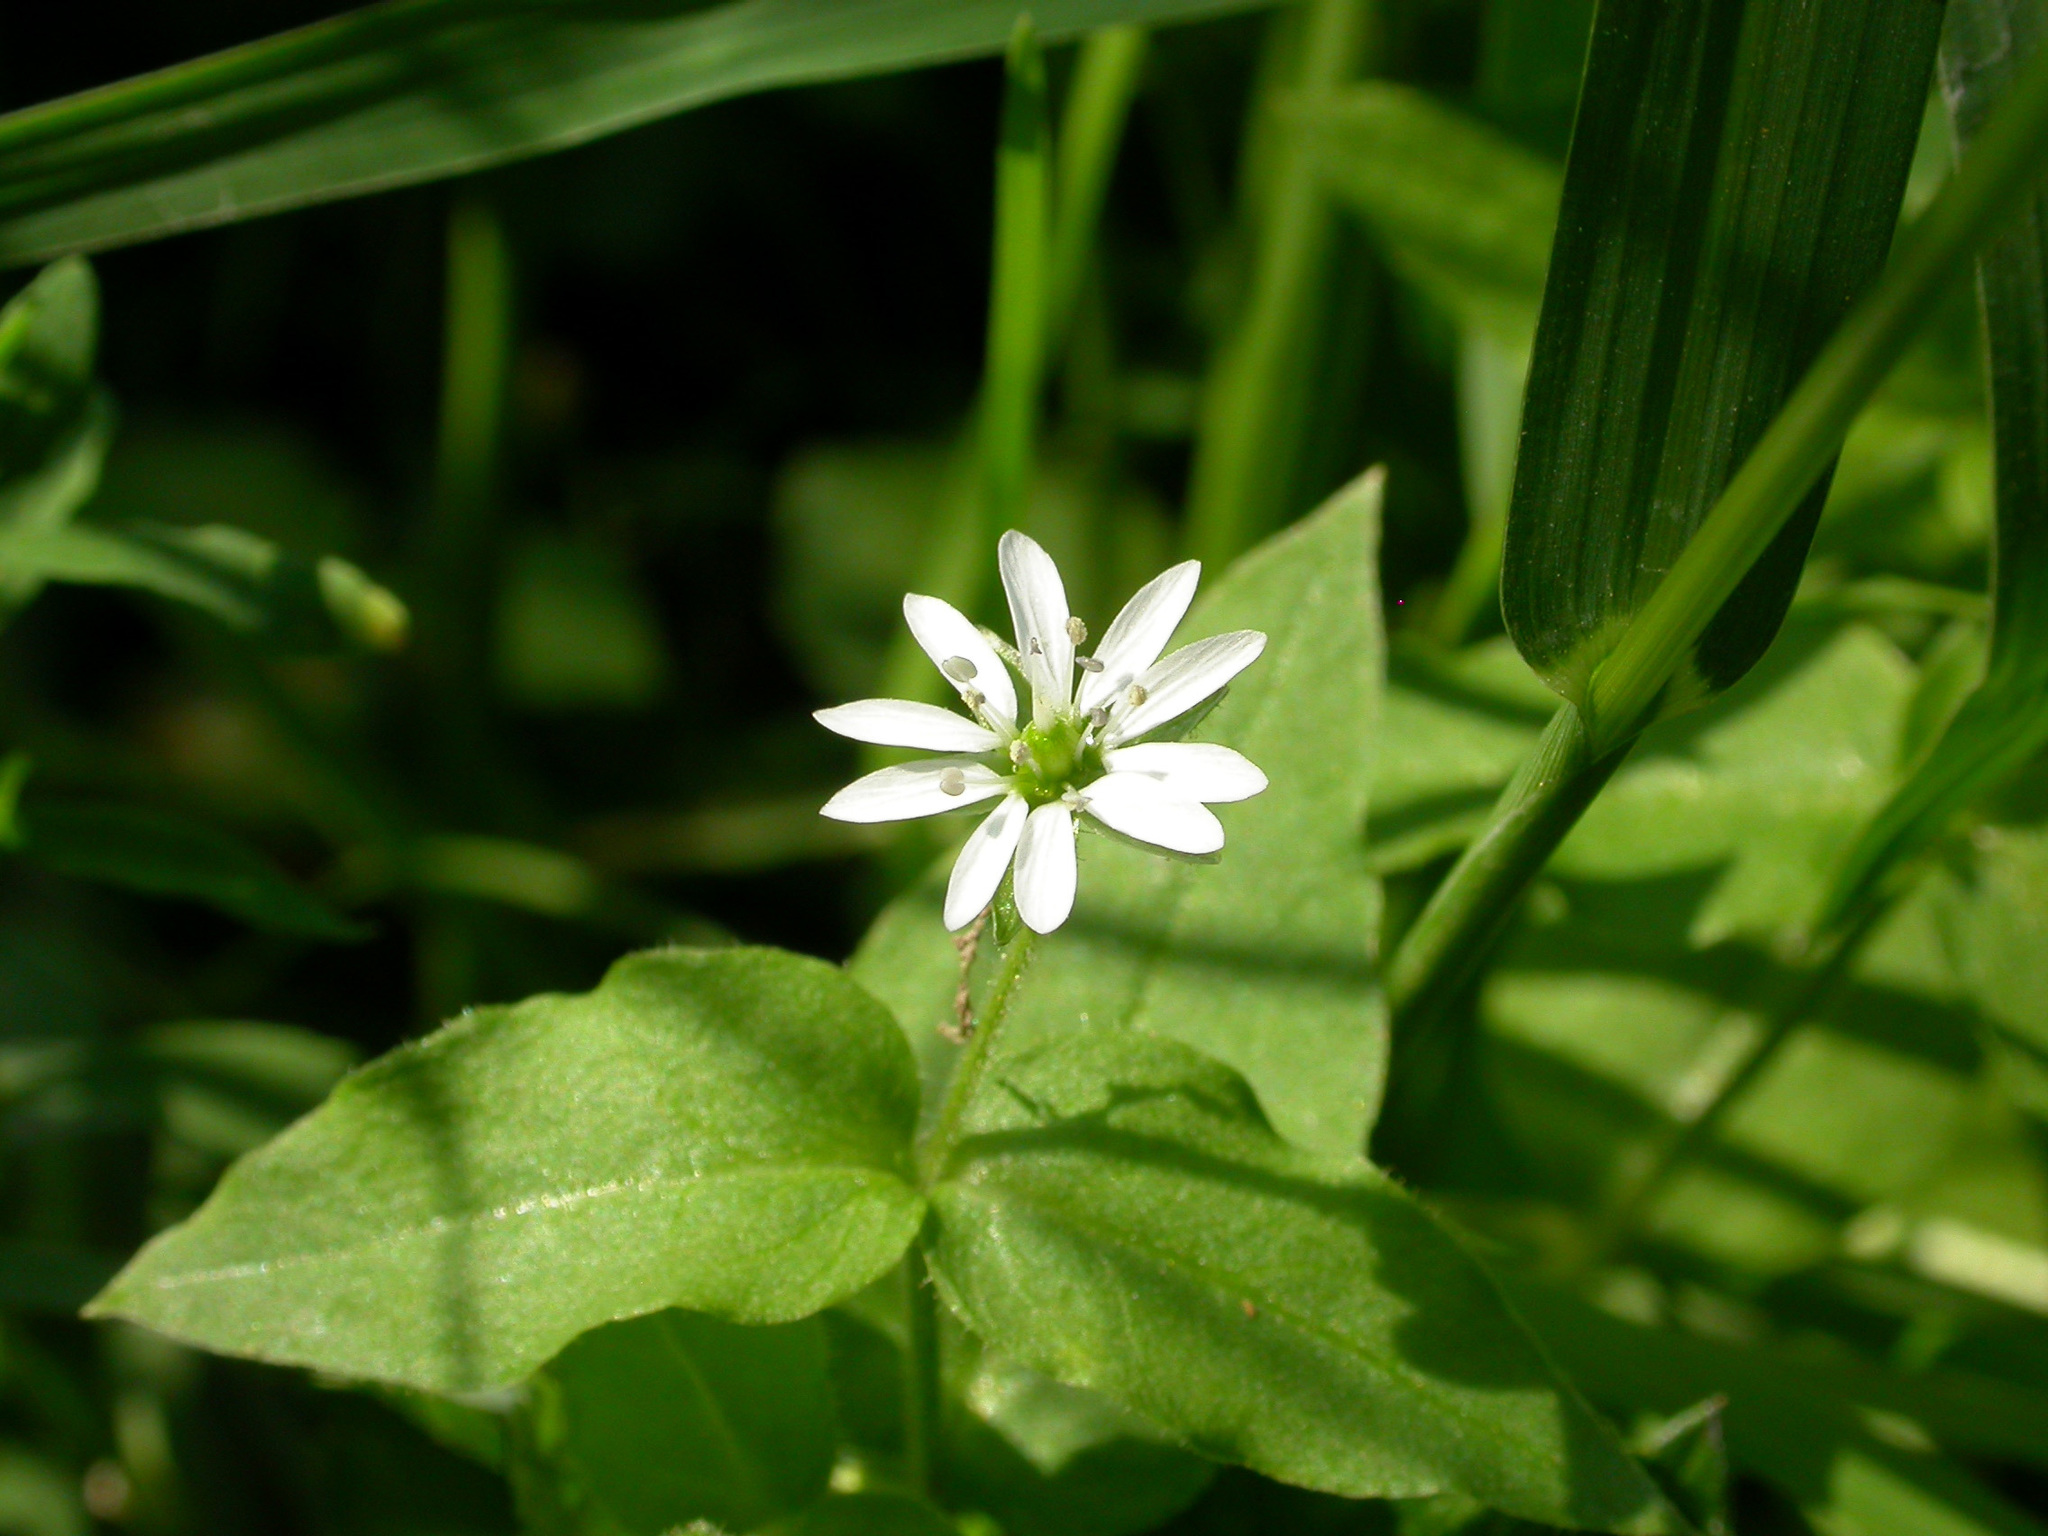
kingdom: Plantae
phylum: Tracheophyta
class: Magnoliopsida
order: Caryophyllales
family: Caryophyllaceae
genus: Stellaria
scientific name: Stellaria aquatica
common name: Water chickweed
